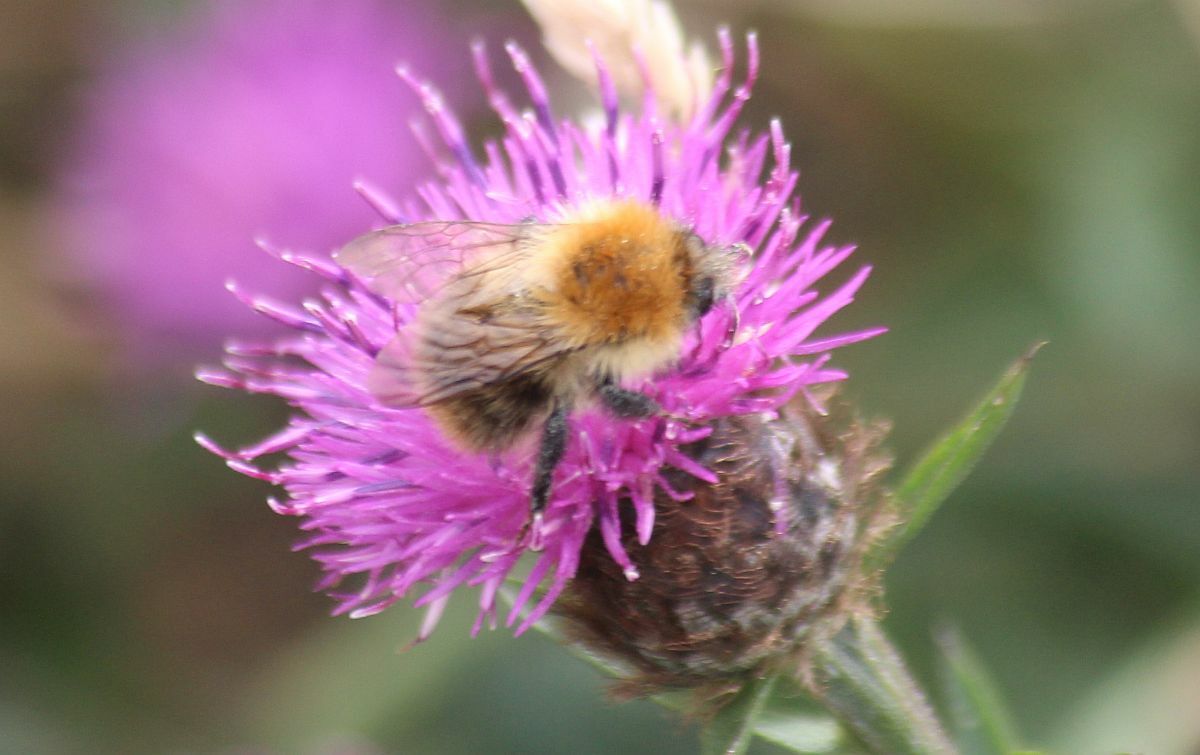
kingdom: Animalia
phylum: Arthropoda
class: Insecta
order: Hymenoptera
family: Apidae
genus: Bombus
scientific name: Bombus pascuorum
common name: Common carder bee
